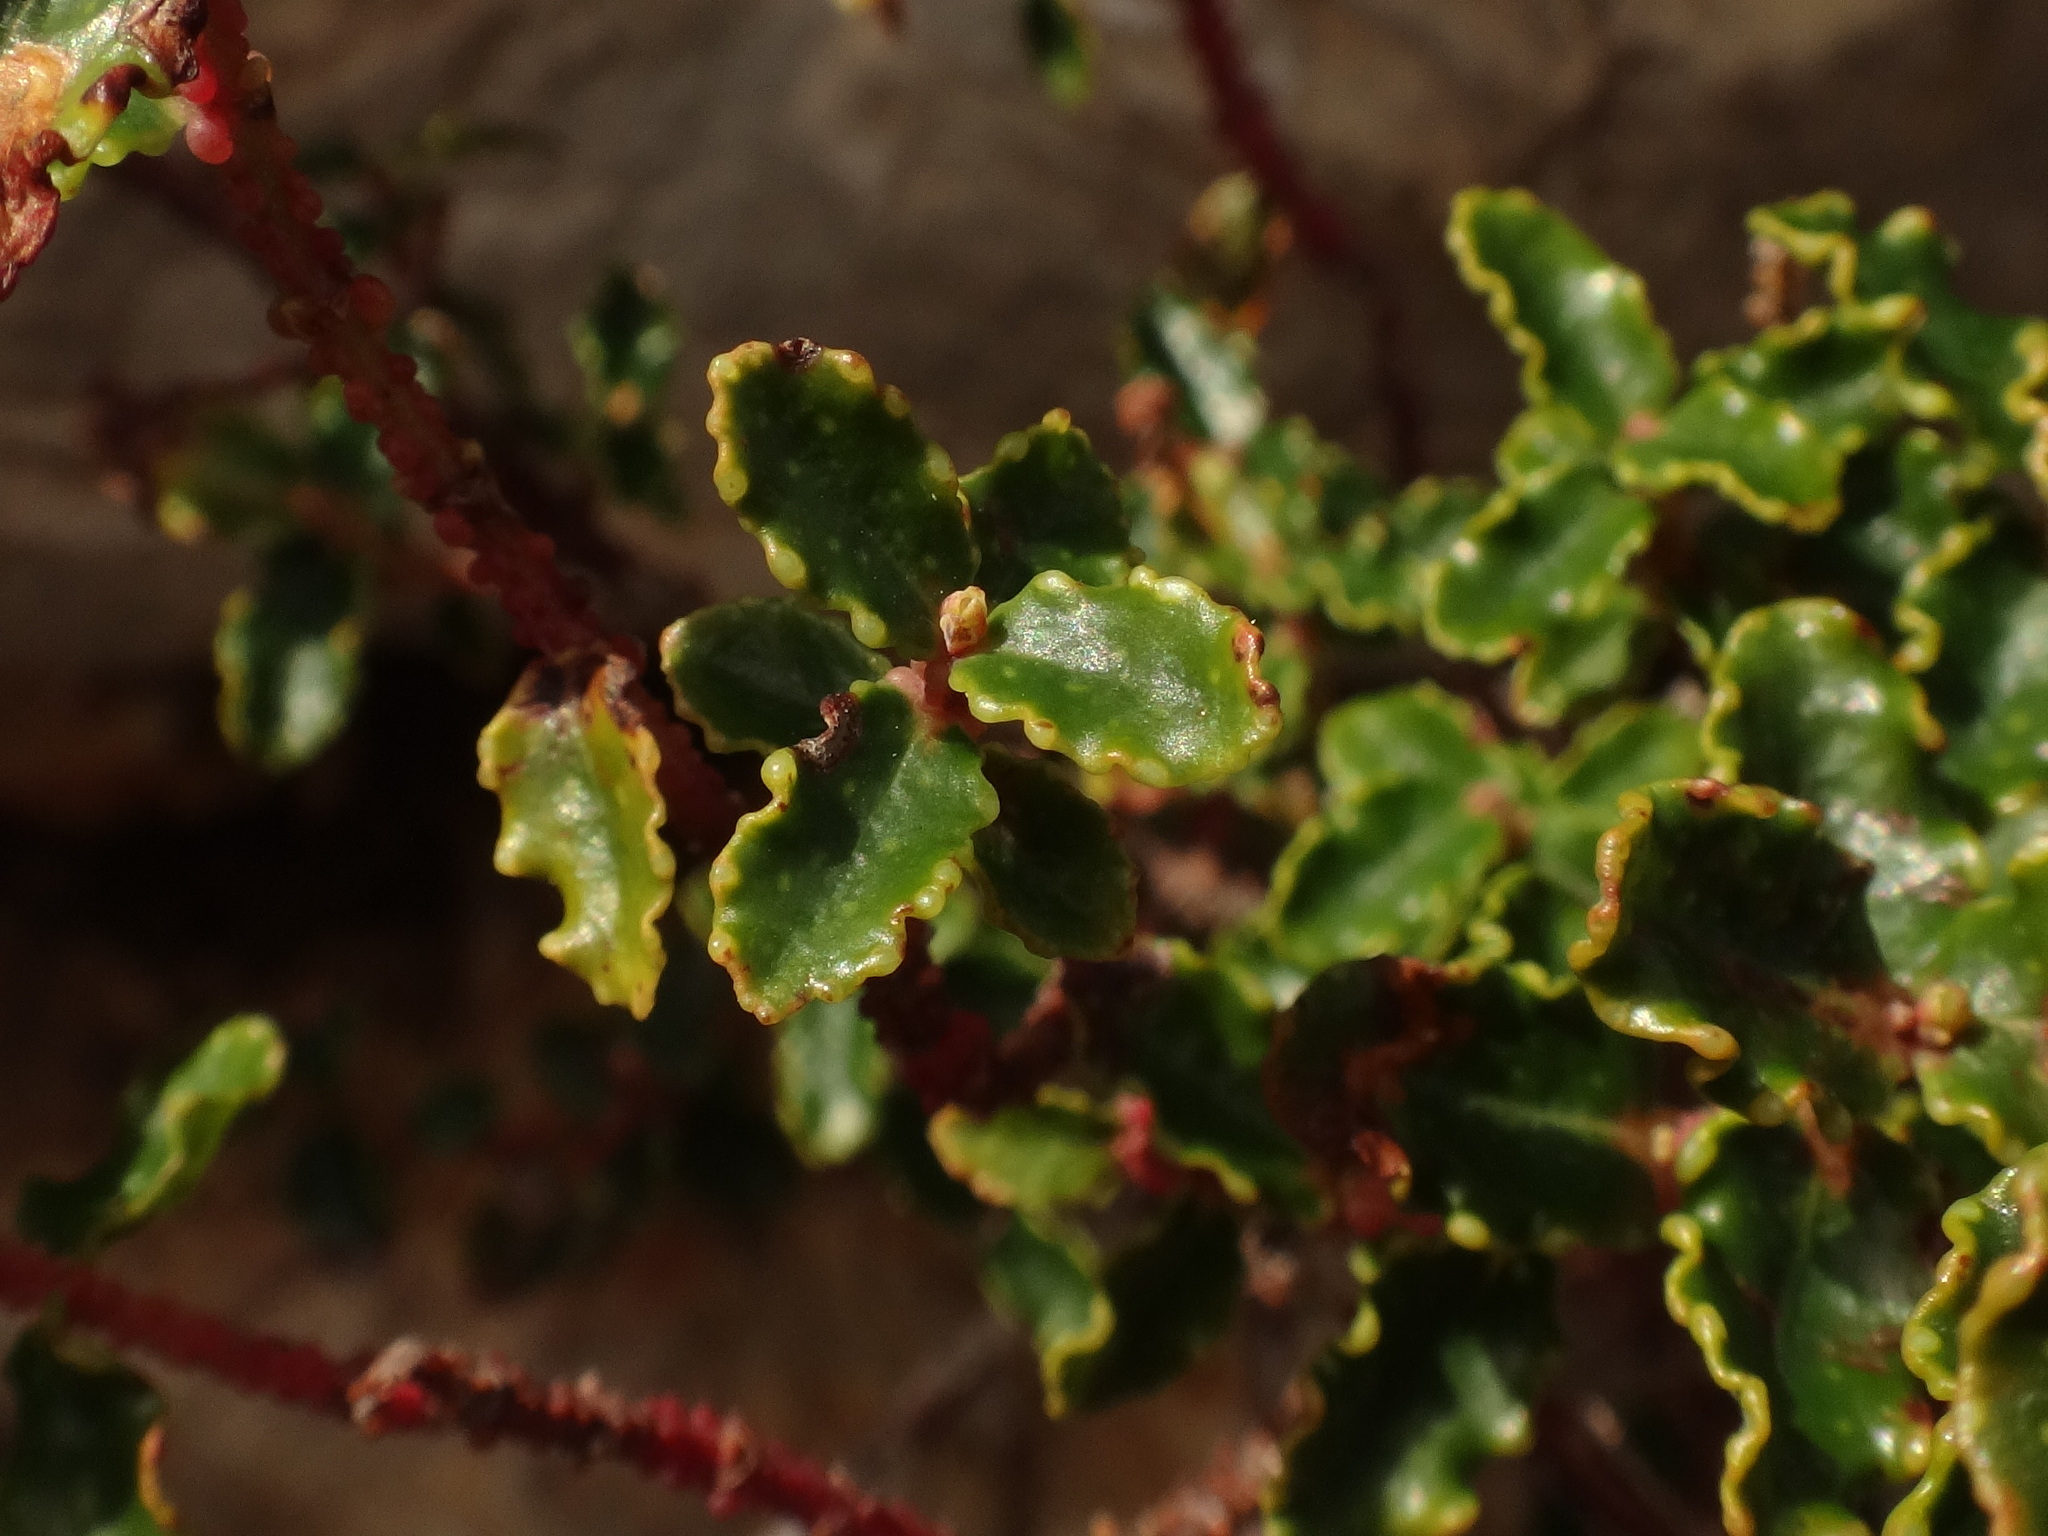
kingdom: Plantae
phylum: Tracheophyta
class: Magnoliopsida
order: Malpighiales
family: Hypericaceae
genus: Hypericum
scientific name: Hypericum balearicum
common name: Majorca st john's wort
